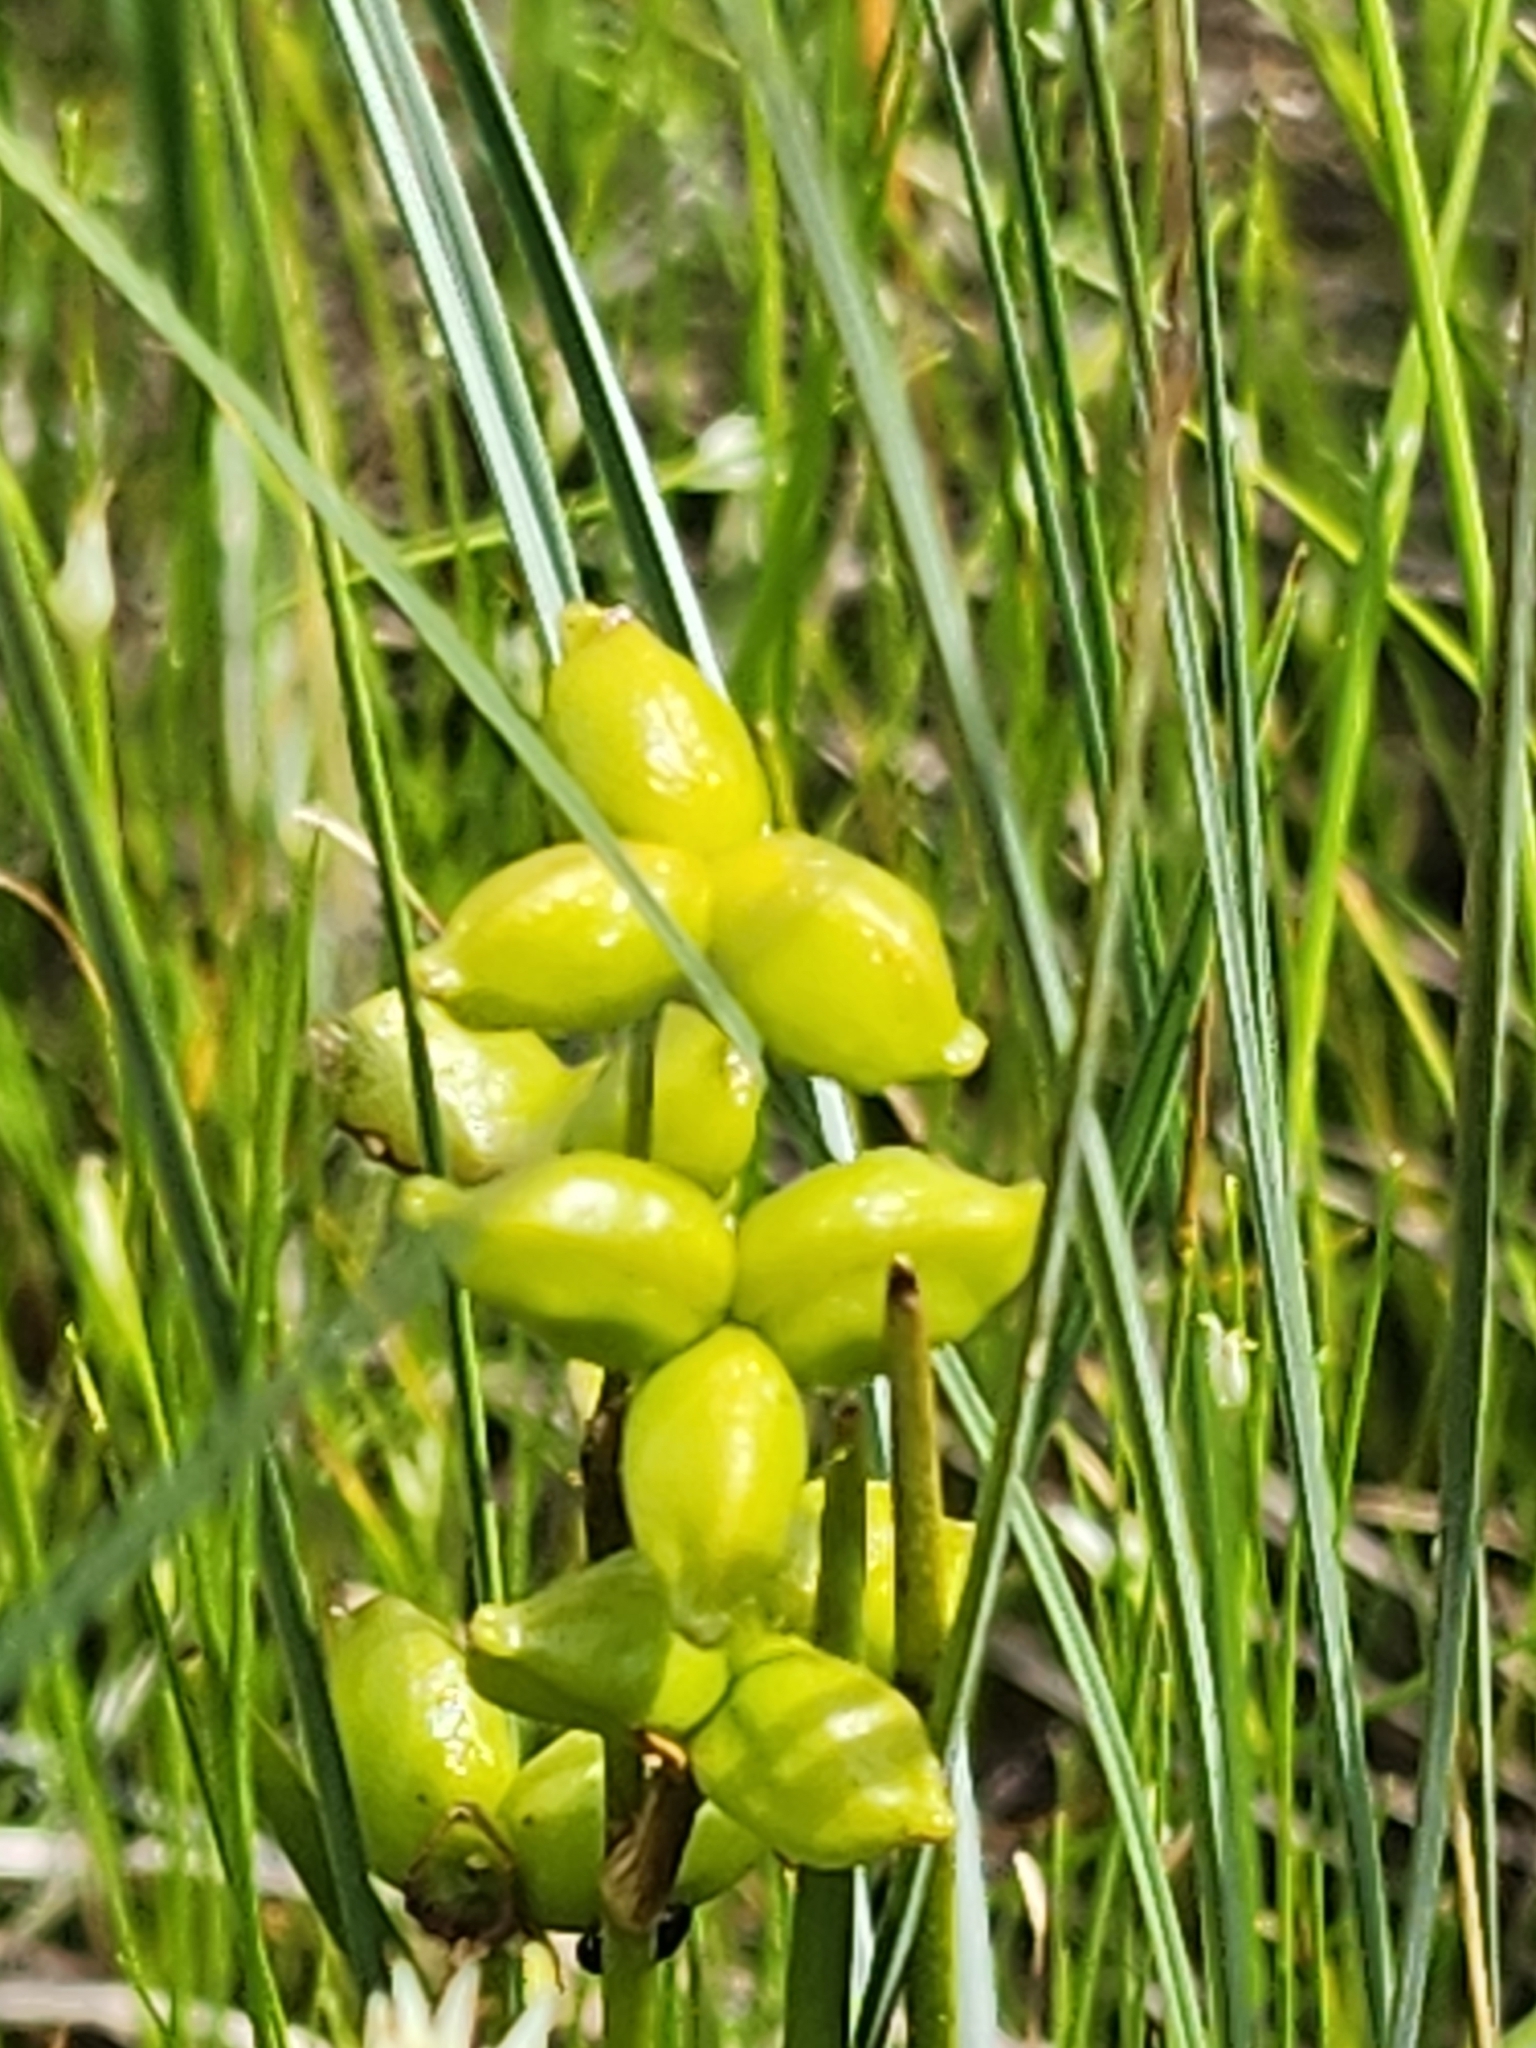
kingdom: Plantae
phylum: Tracheophyta
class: Liliopsida
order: Alismatales
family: Scheuchzeriaceae
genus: Scheuchzeria
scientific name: Scheuchzeria palustris
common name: Rannoch-rush
